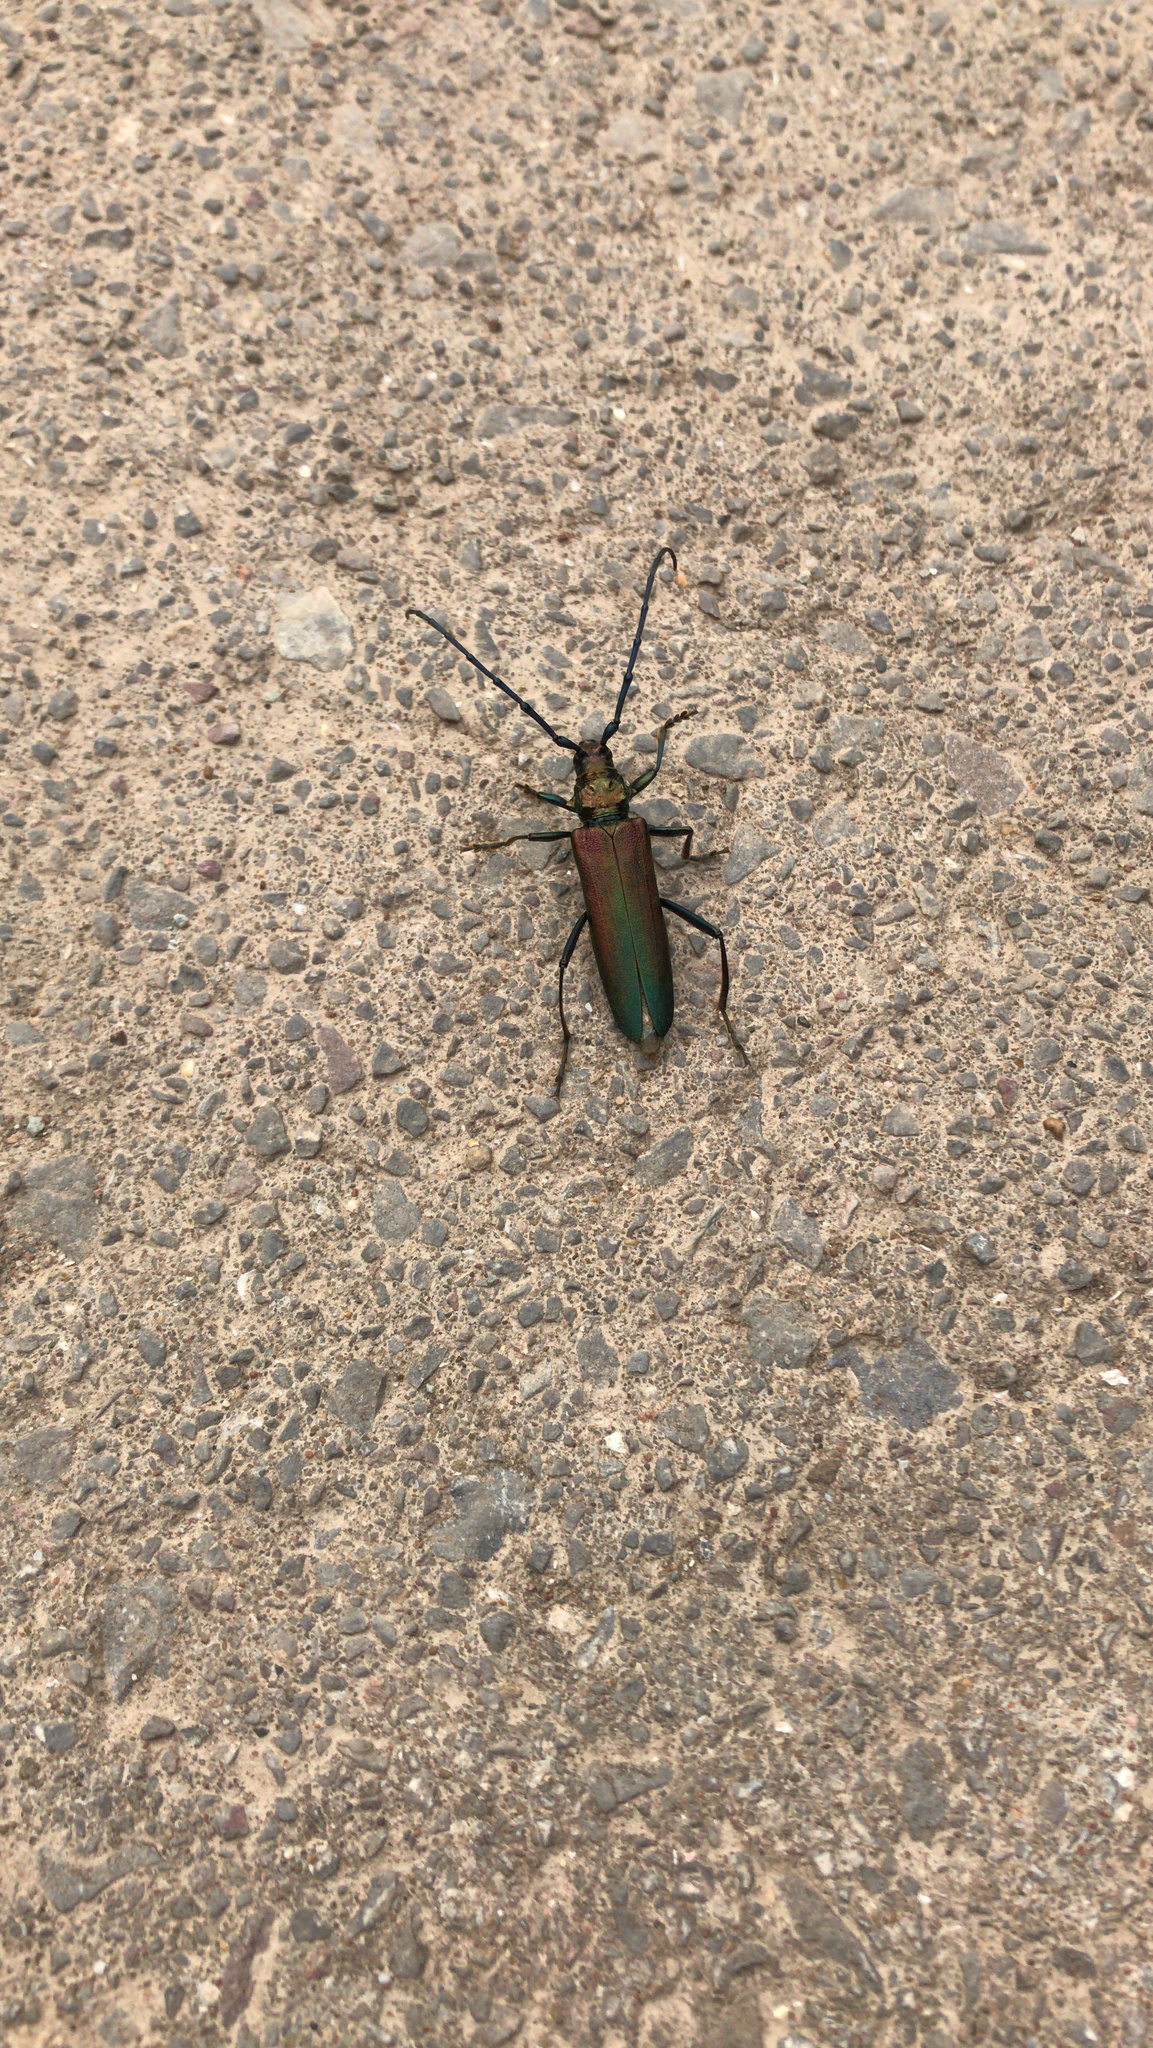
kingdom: Animalia
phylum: Arthropoda
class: Insecta
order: Coleoptera
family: Cerambycidae
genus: Aromia
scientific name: Aromia moschata
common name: Musk beetle
